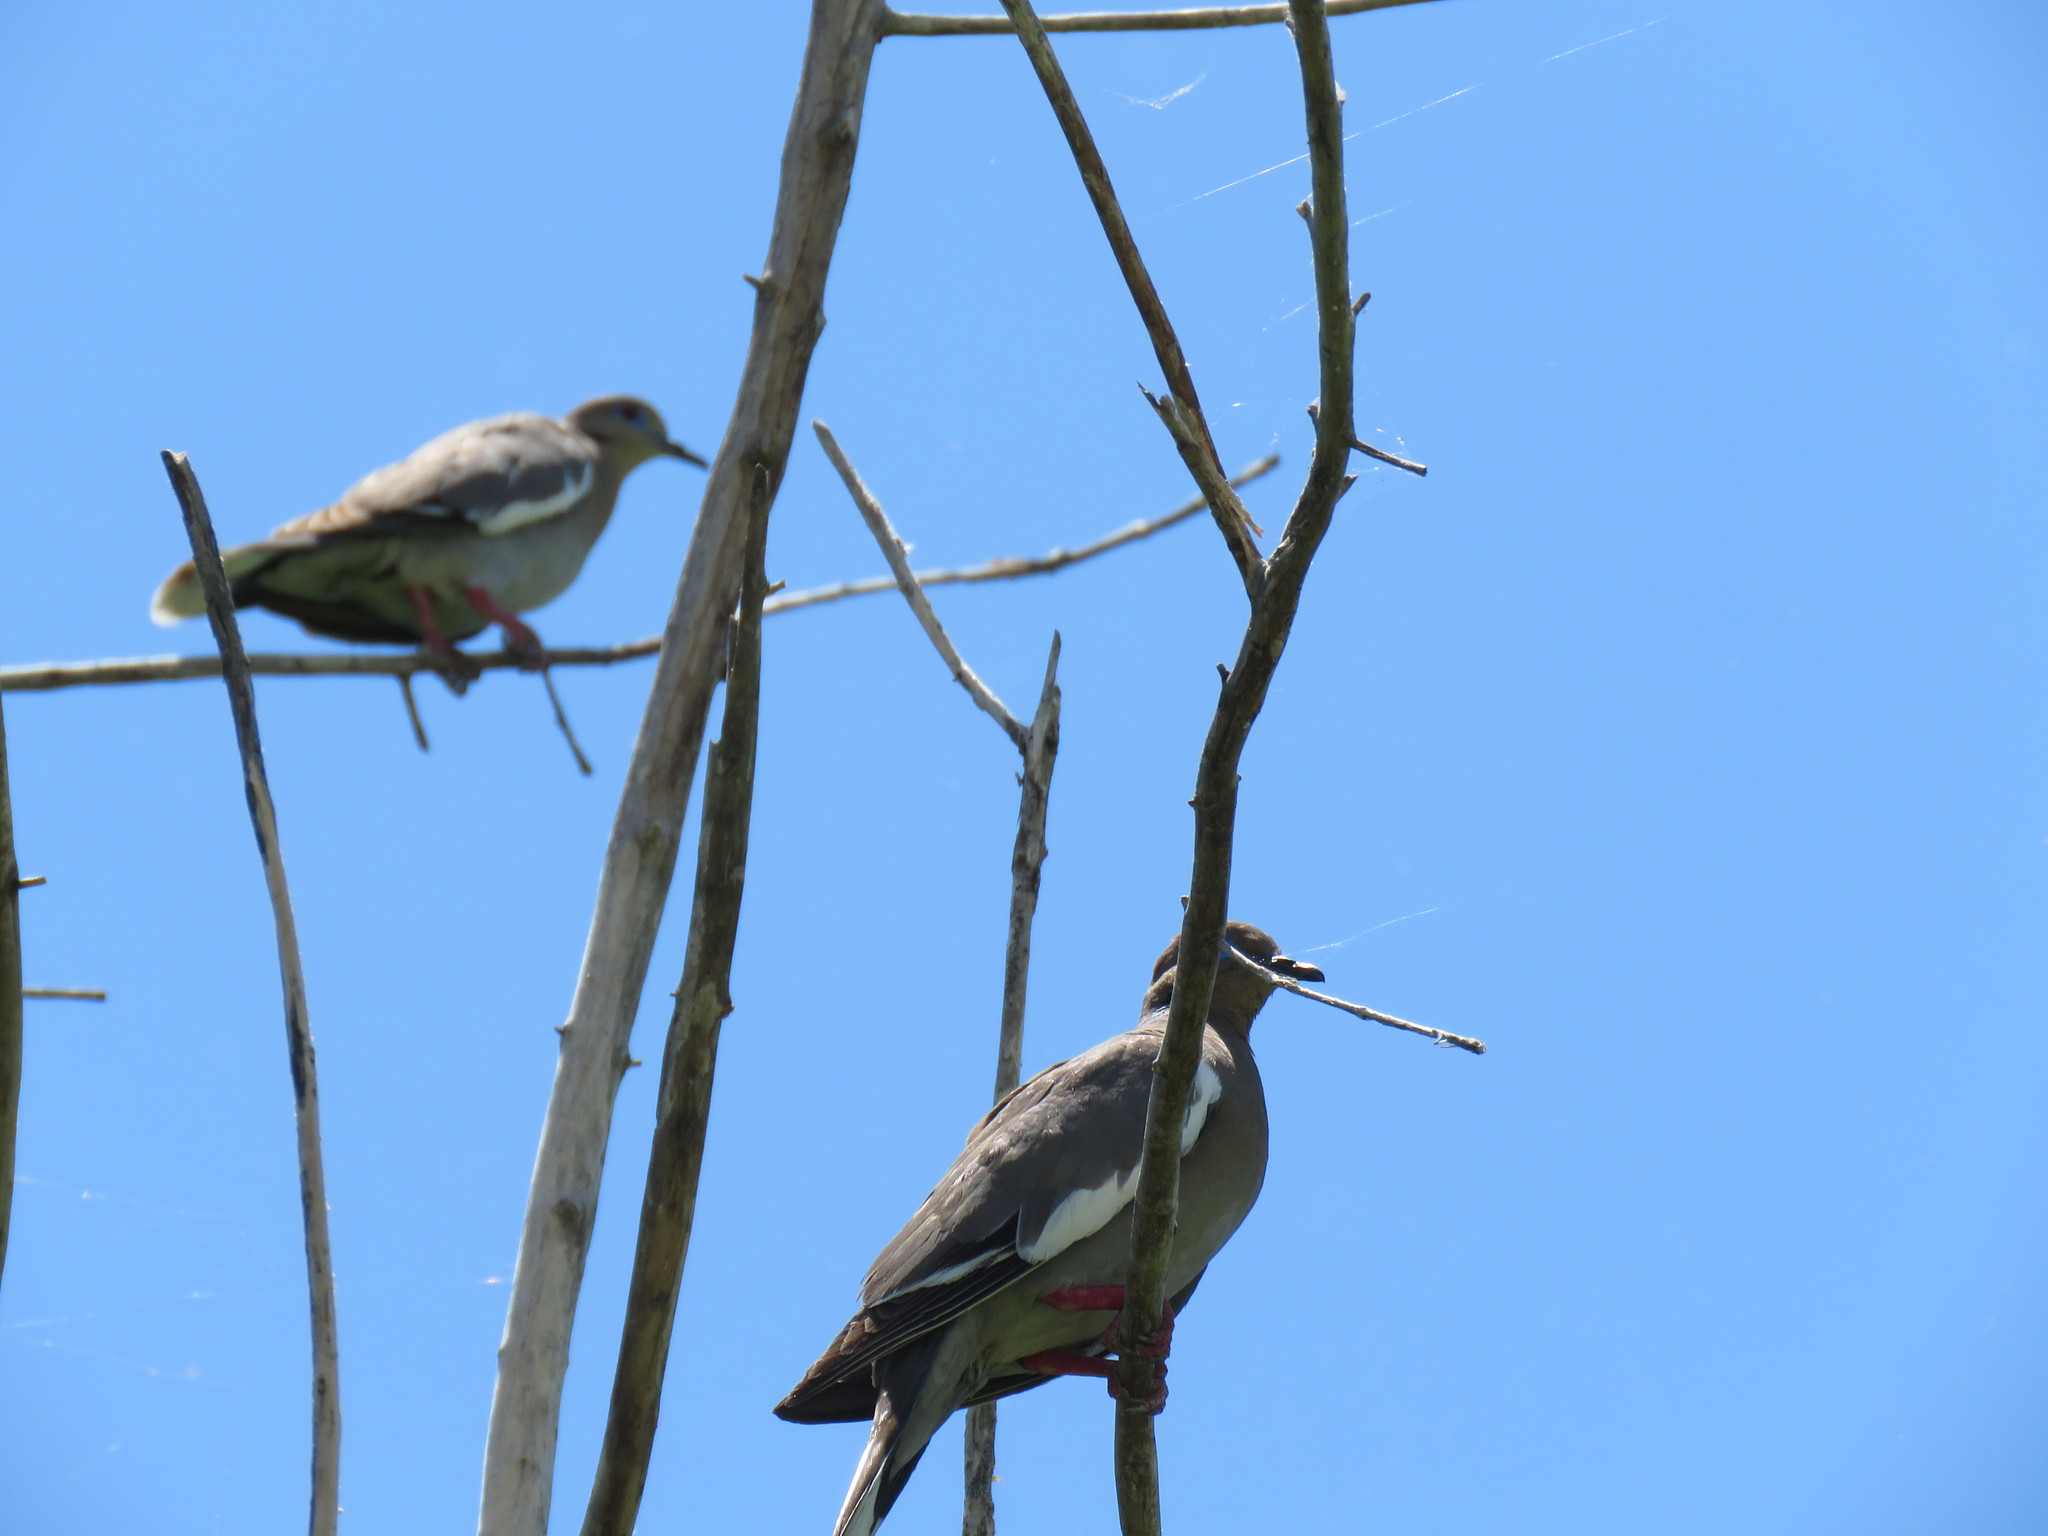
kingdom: Animalia
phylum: Chordata
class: Aves
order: Columbiformes
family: Columbidae
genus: Zenaida
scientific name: Zenaida asiatica
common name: White-winged dove
